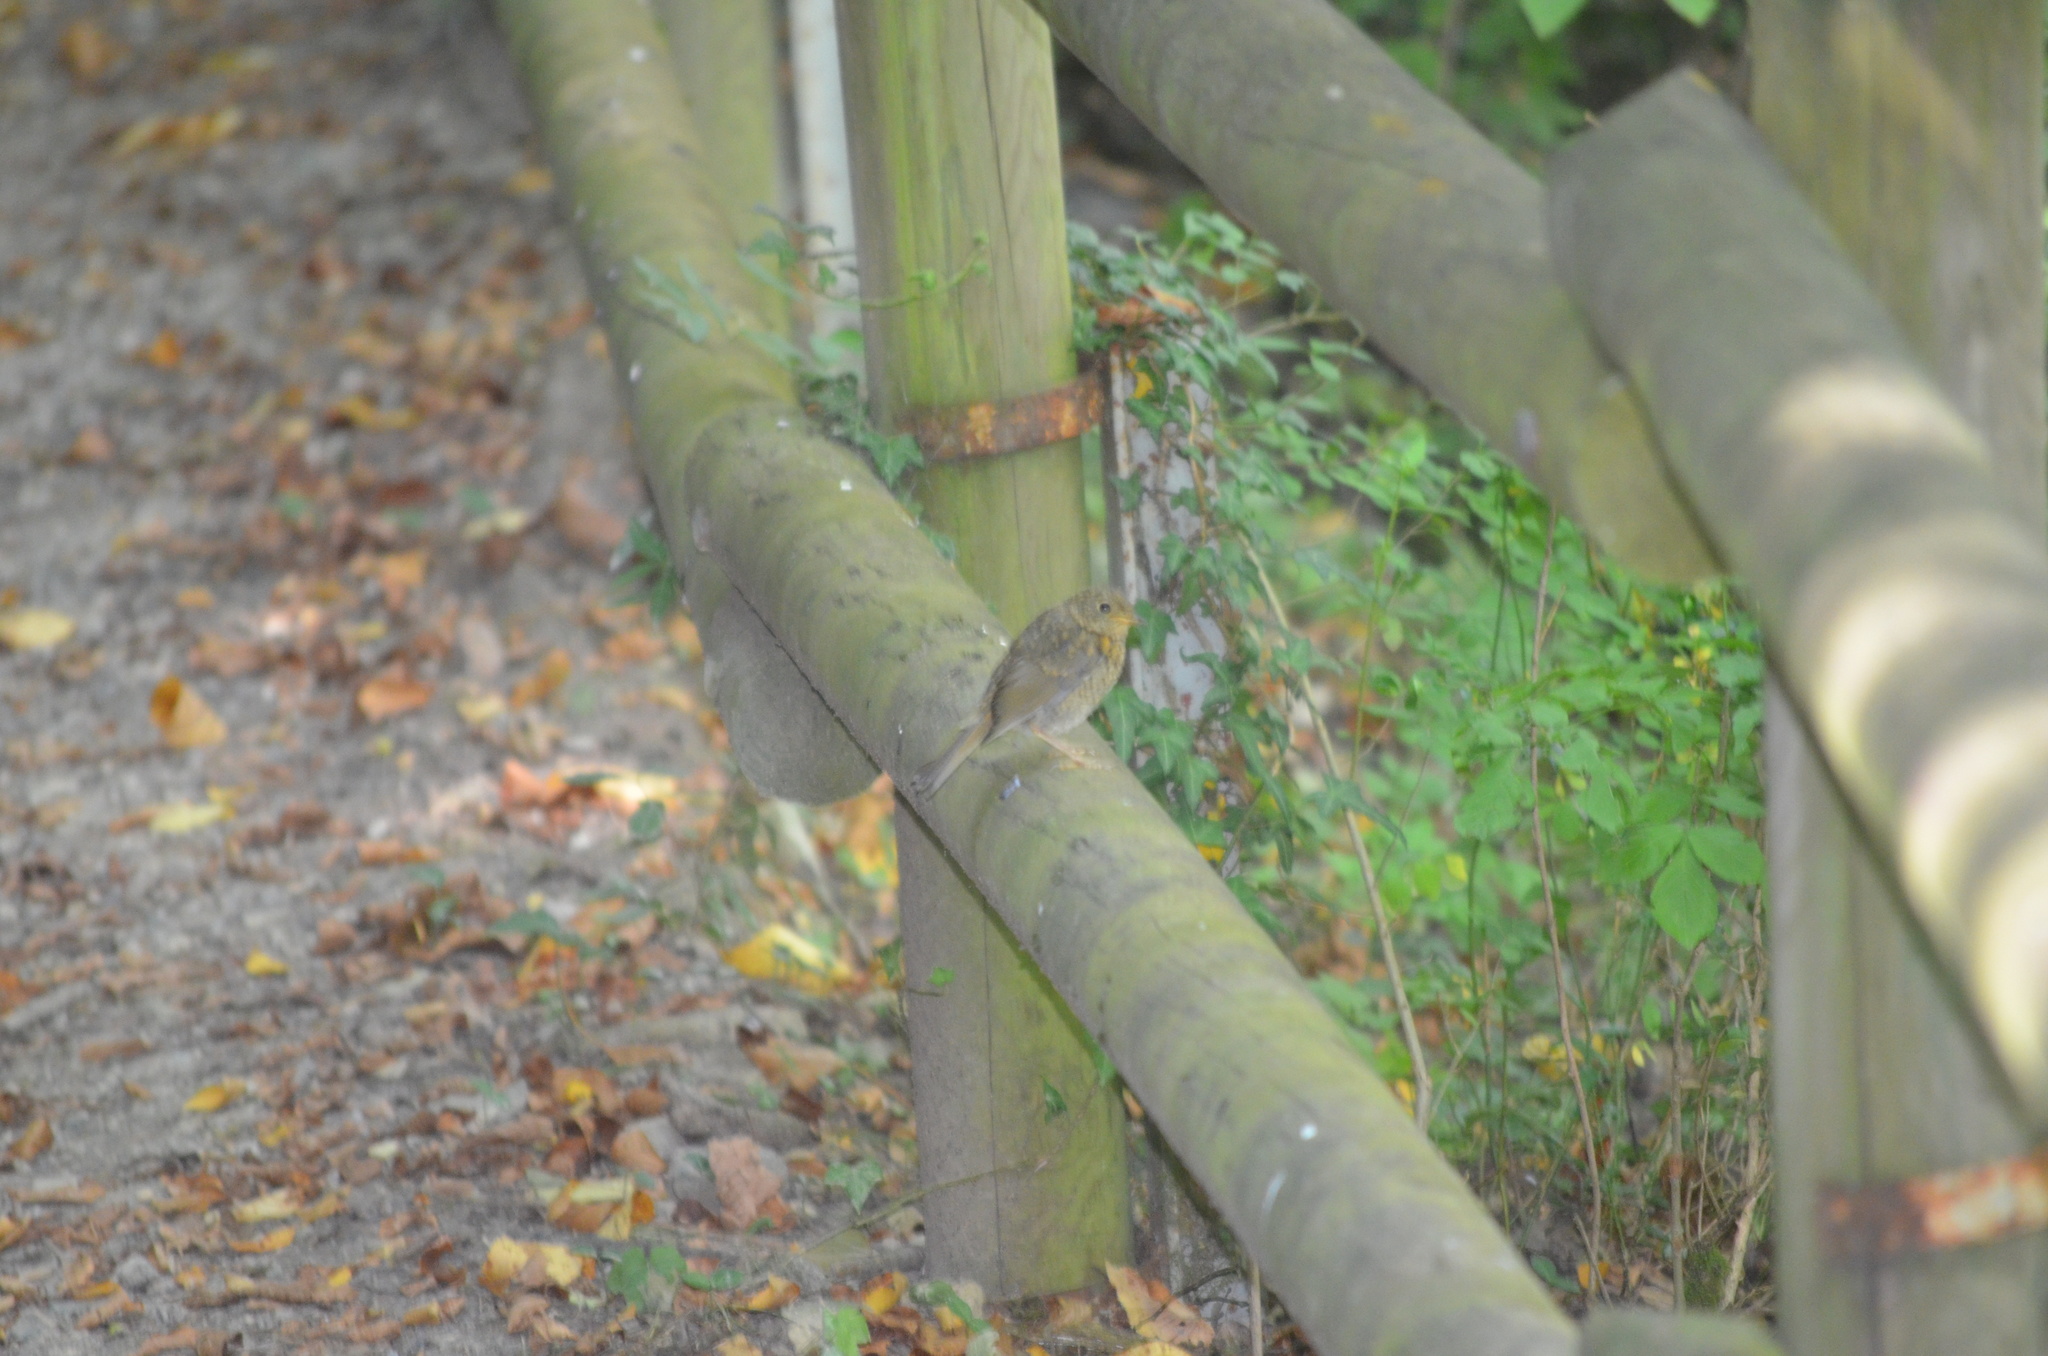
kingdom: Animalia
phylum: Chordata
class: Aves
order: Passeriformes
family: Muscicapidae
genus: Erithacus
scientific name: Erithacus rubecula
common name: European robin
